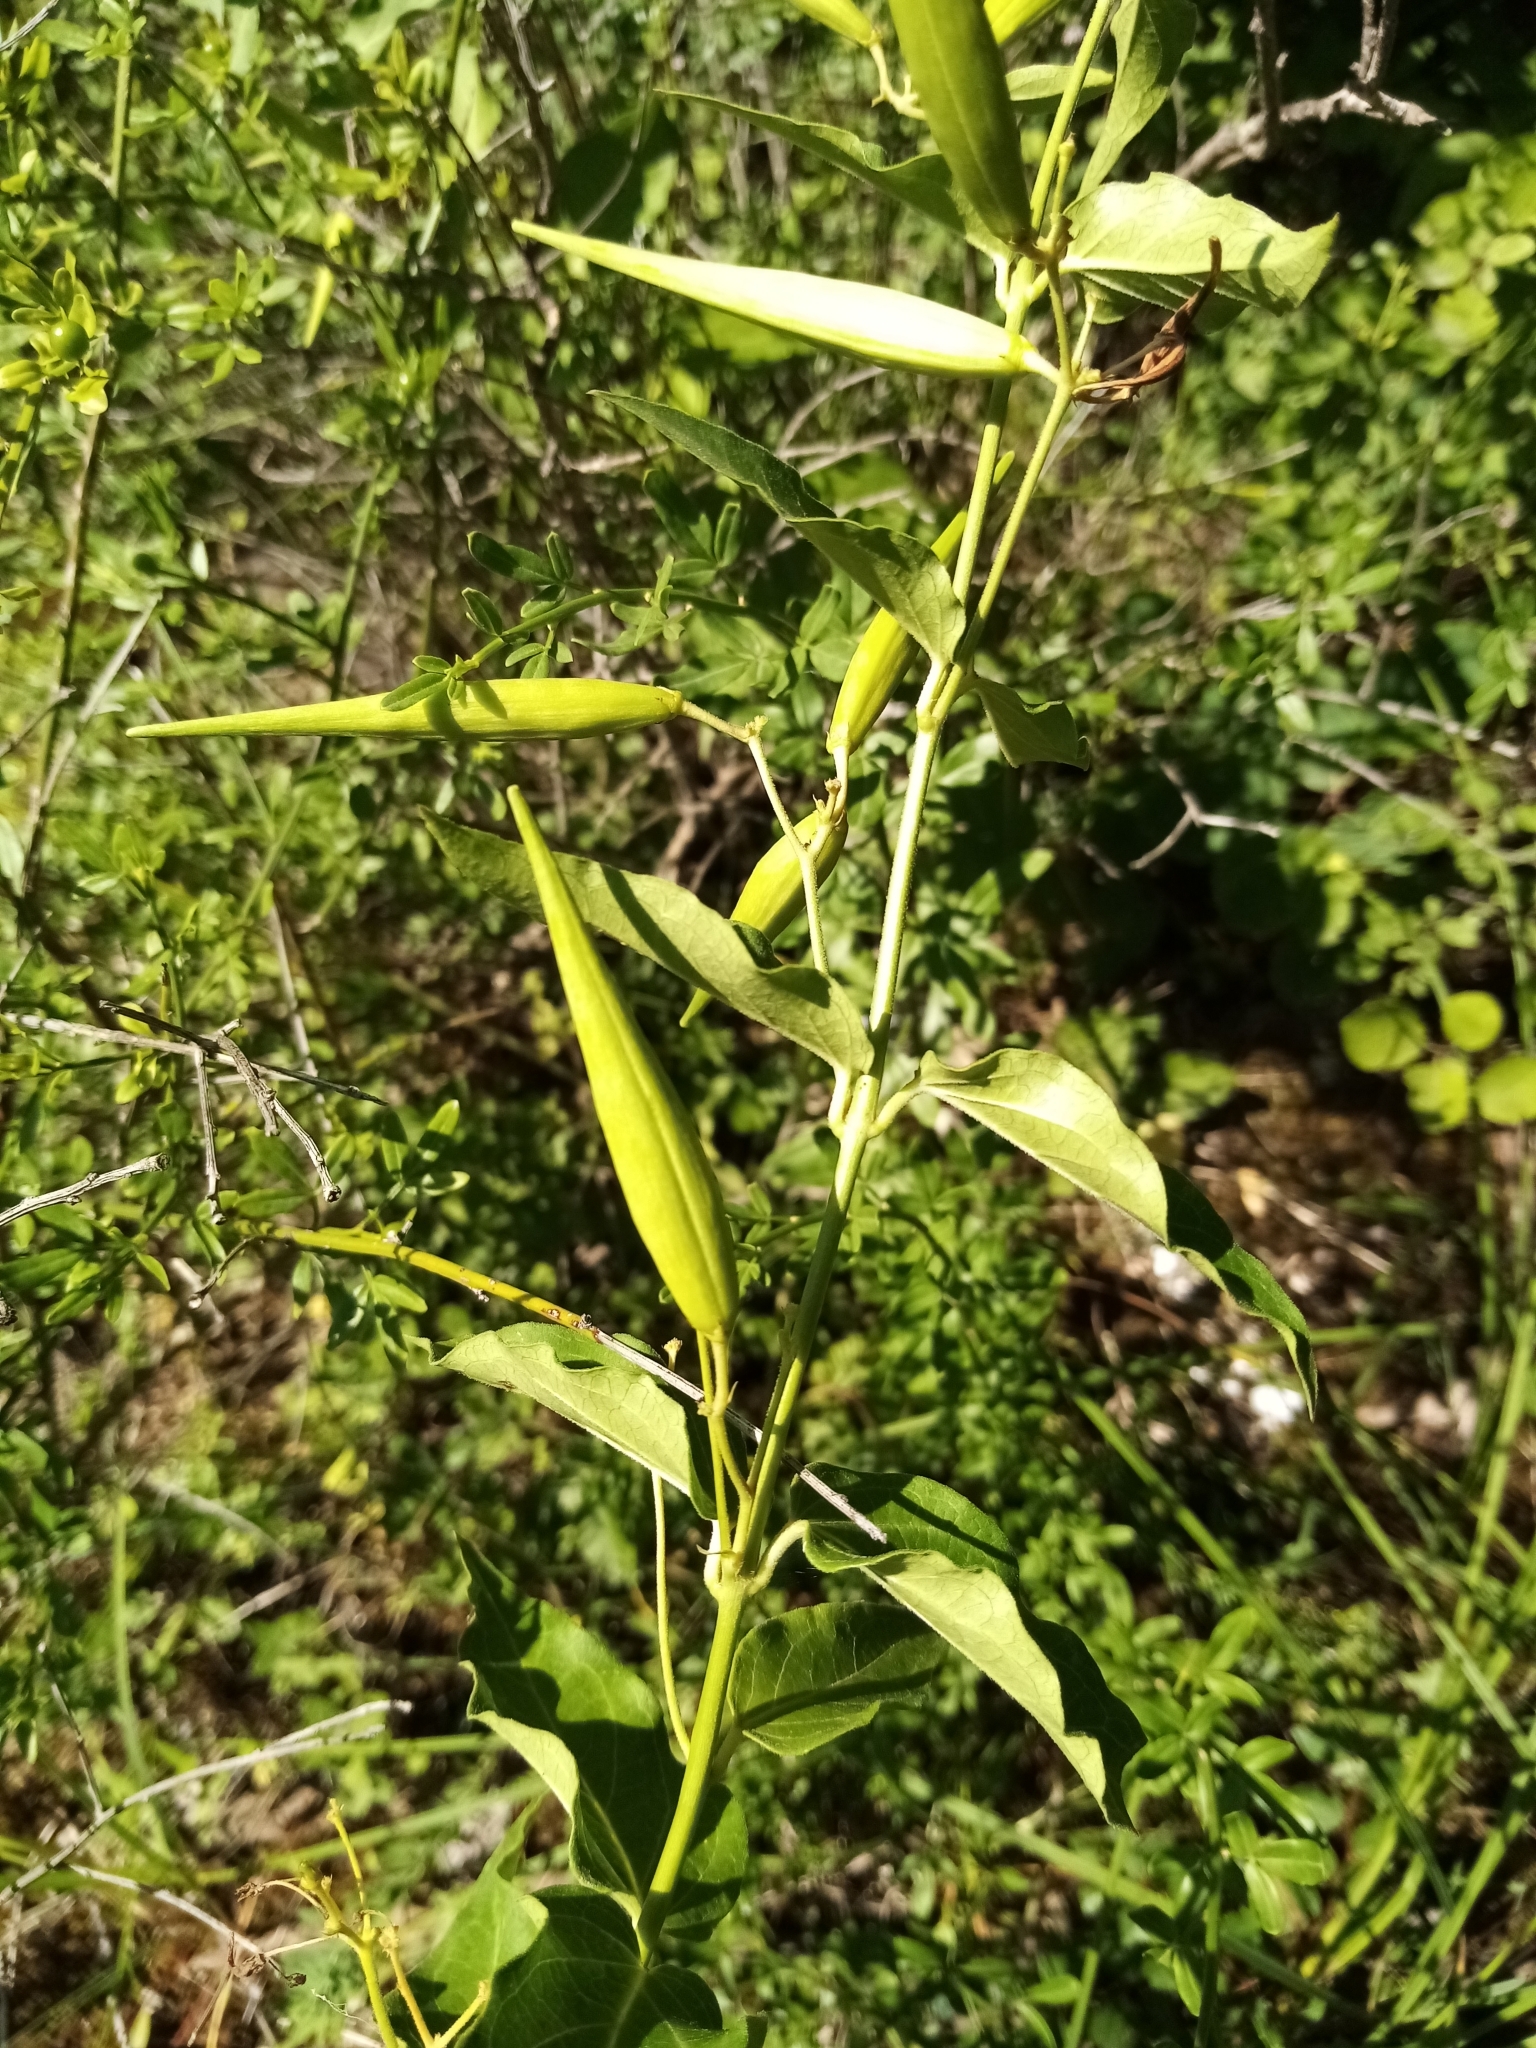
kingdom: Plantae
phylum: Tracheophyta
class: Magnoliopsida
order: Gentianales
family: Apocynaceae
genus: Vincetoxicum
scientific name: Vincetoxicum hirundinaria
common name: White swallowwort
